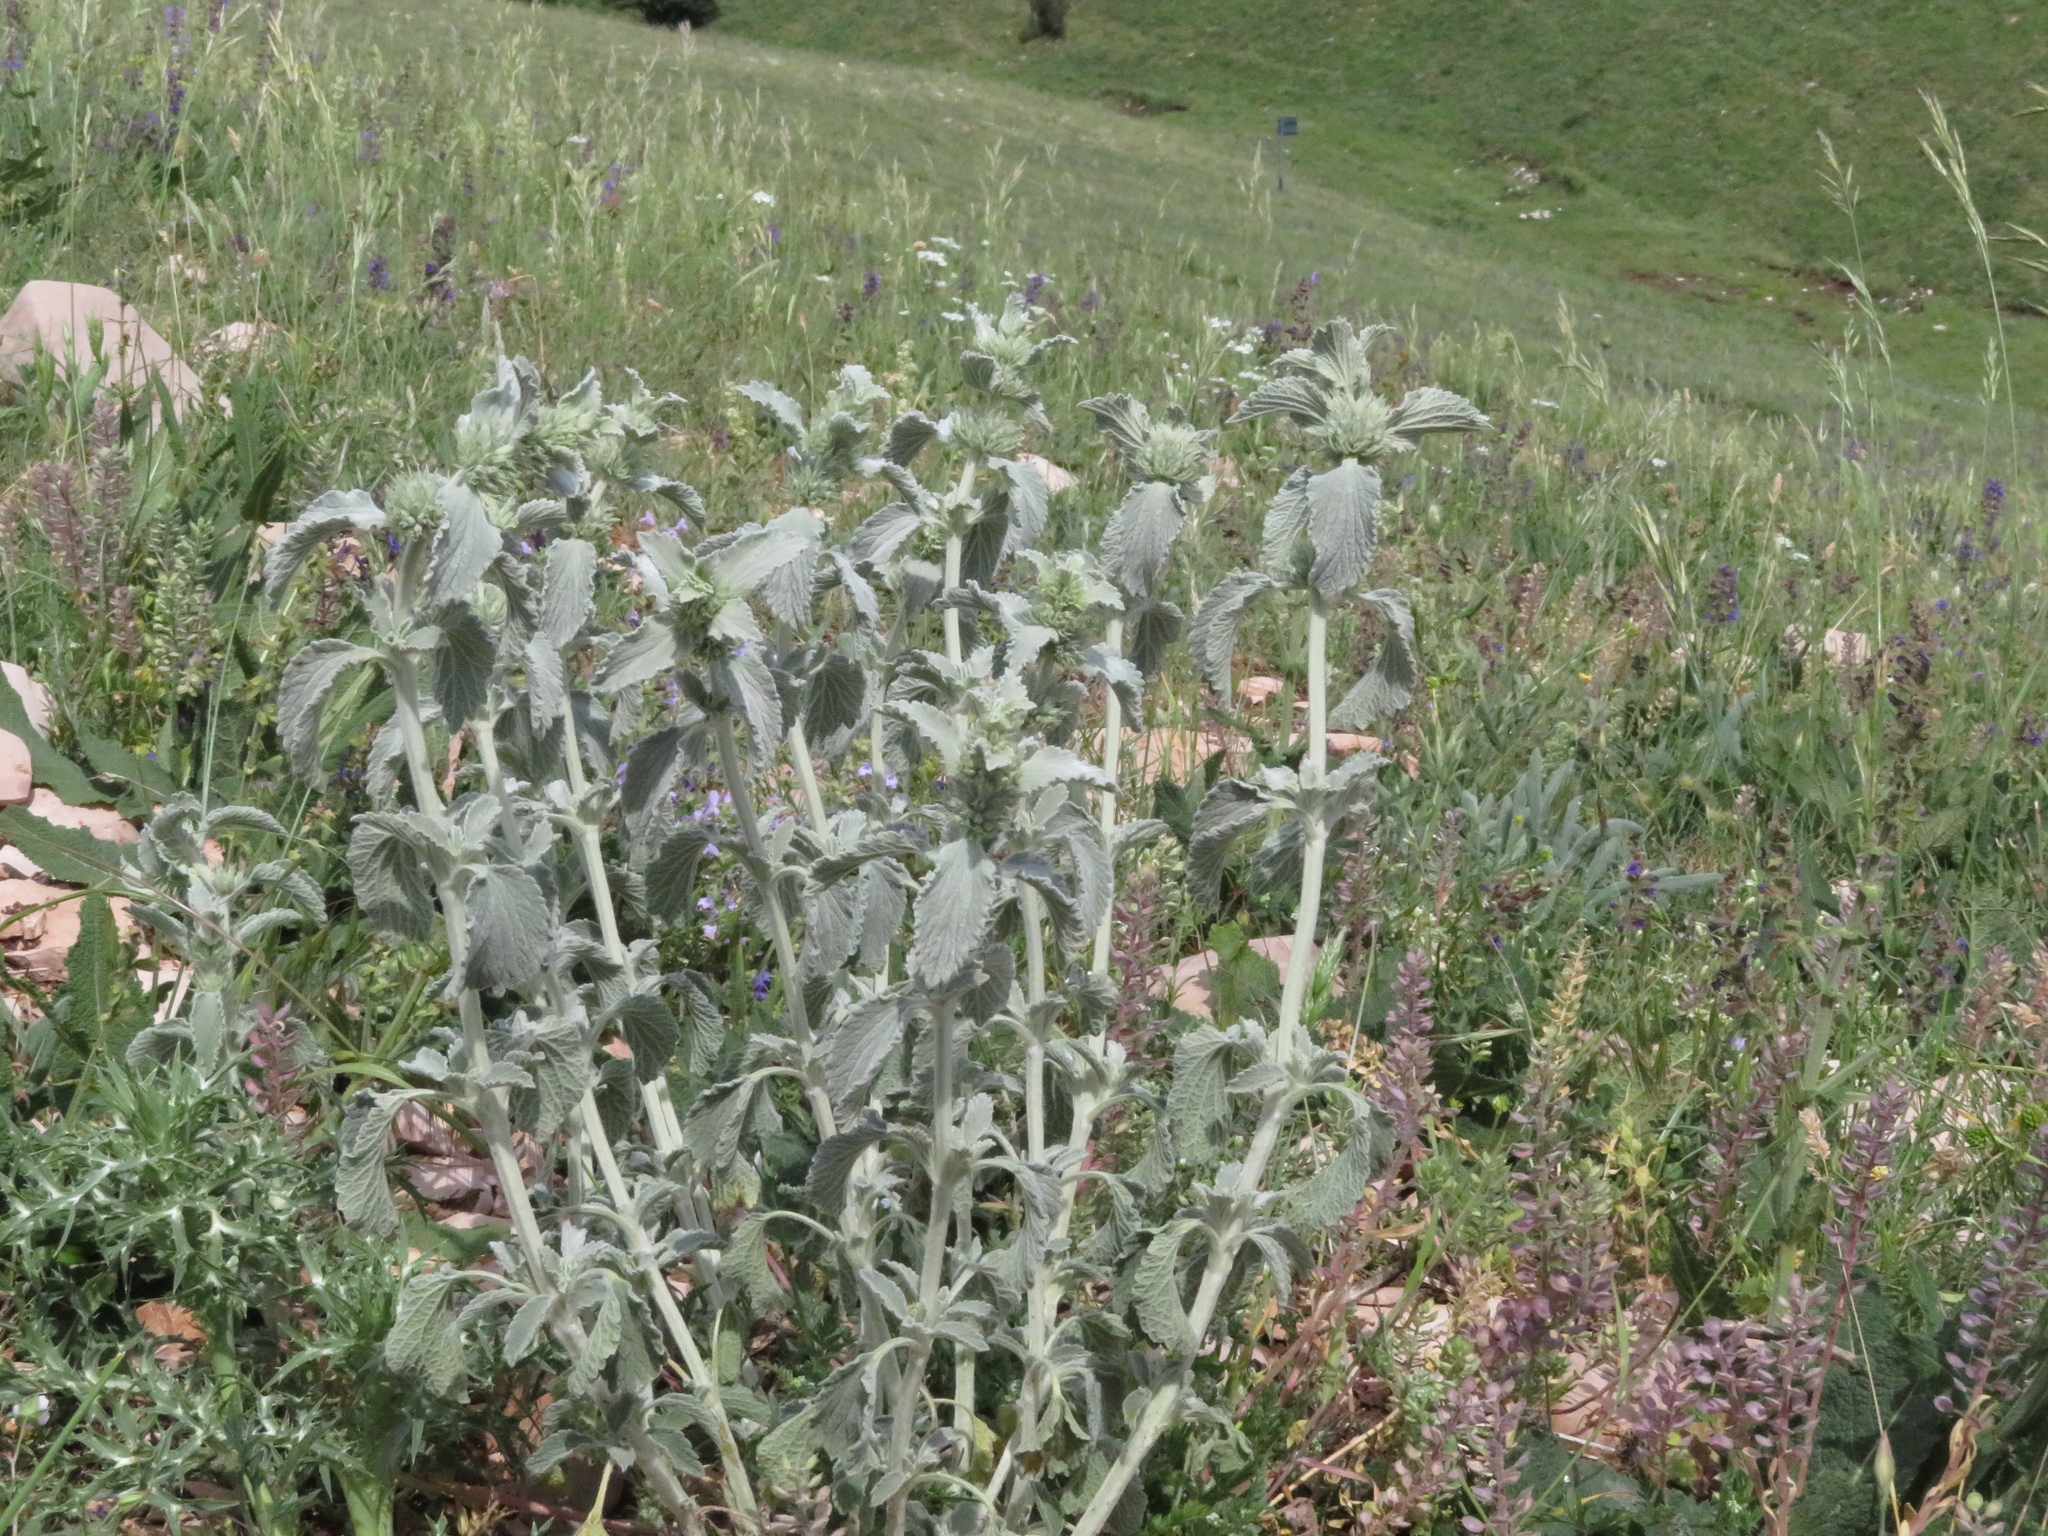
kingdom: Plantae
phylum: Tracheophyta
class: Magnoliopsida
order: Lamiales
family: Lamiaceae
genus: Marrubium
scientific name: Marrubium incanum
